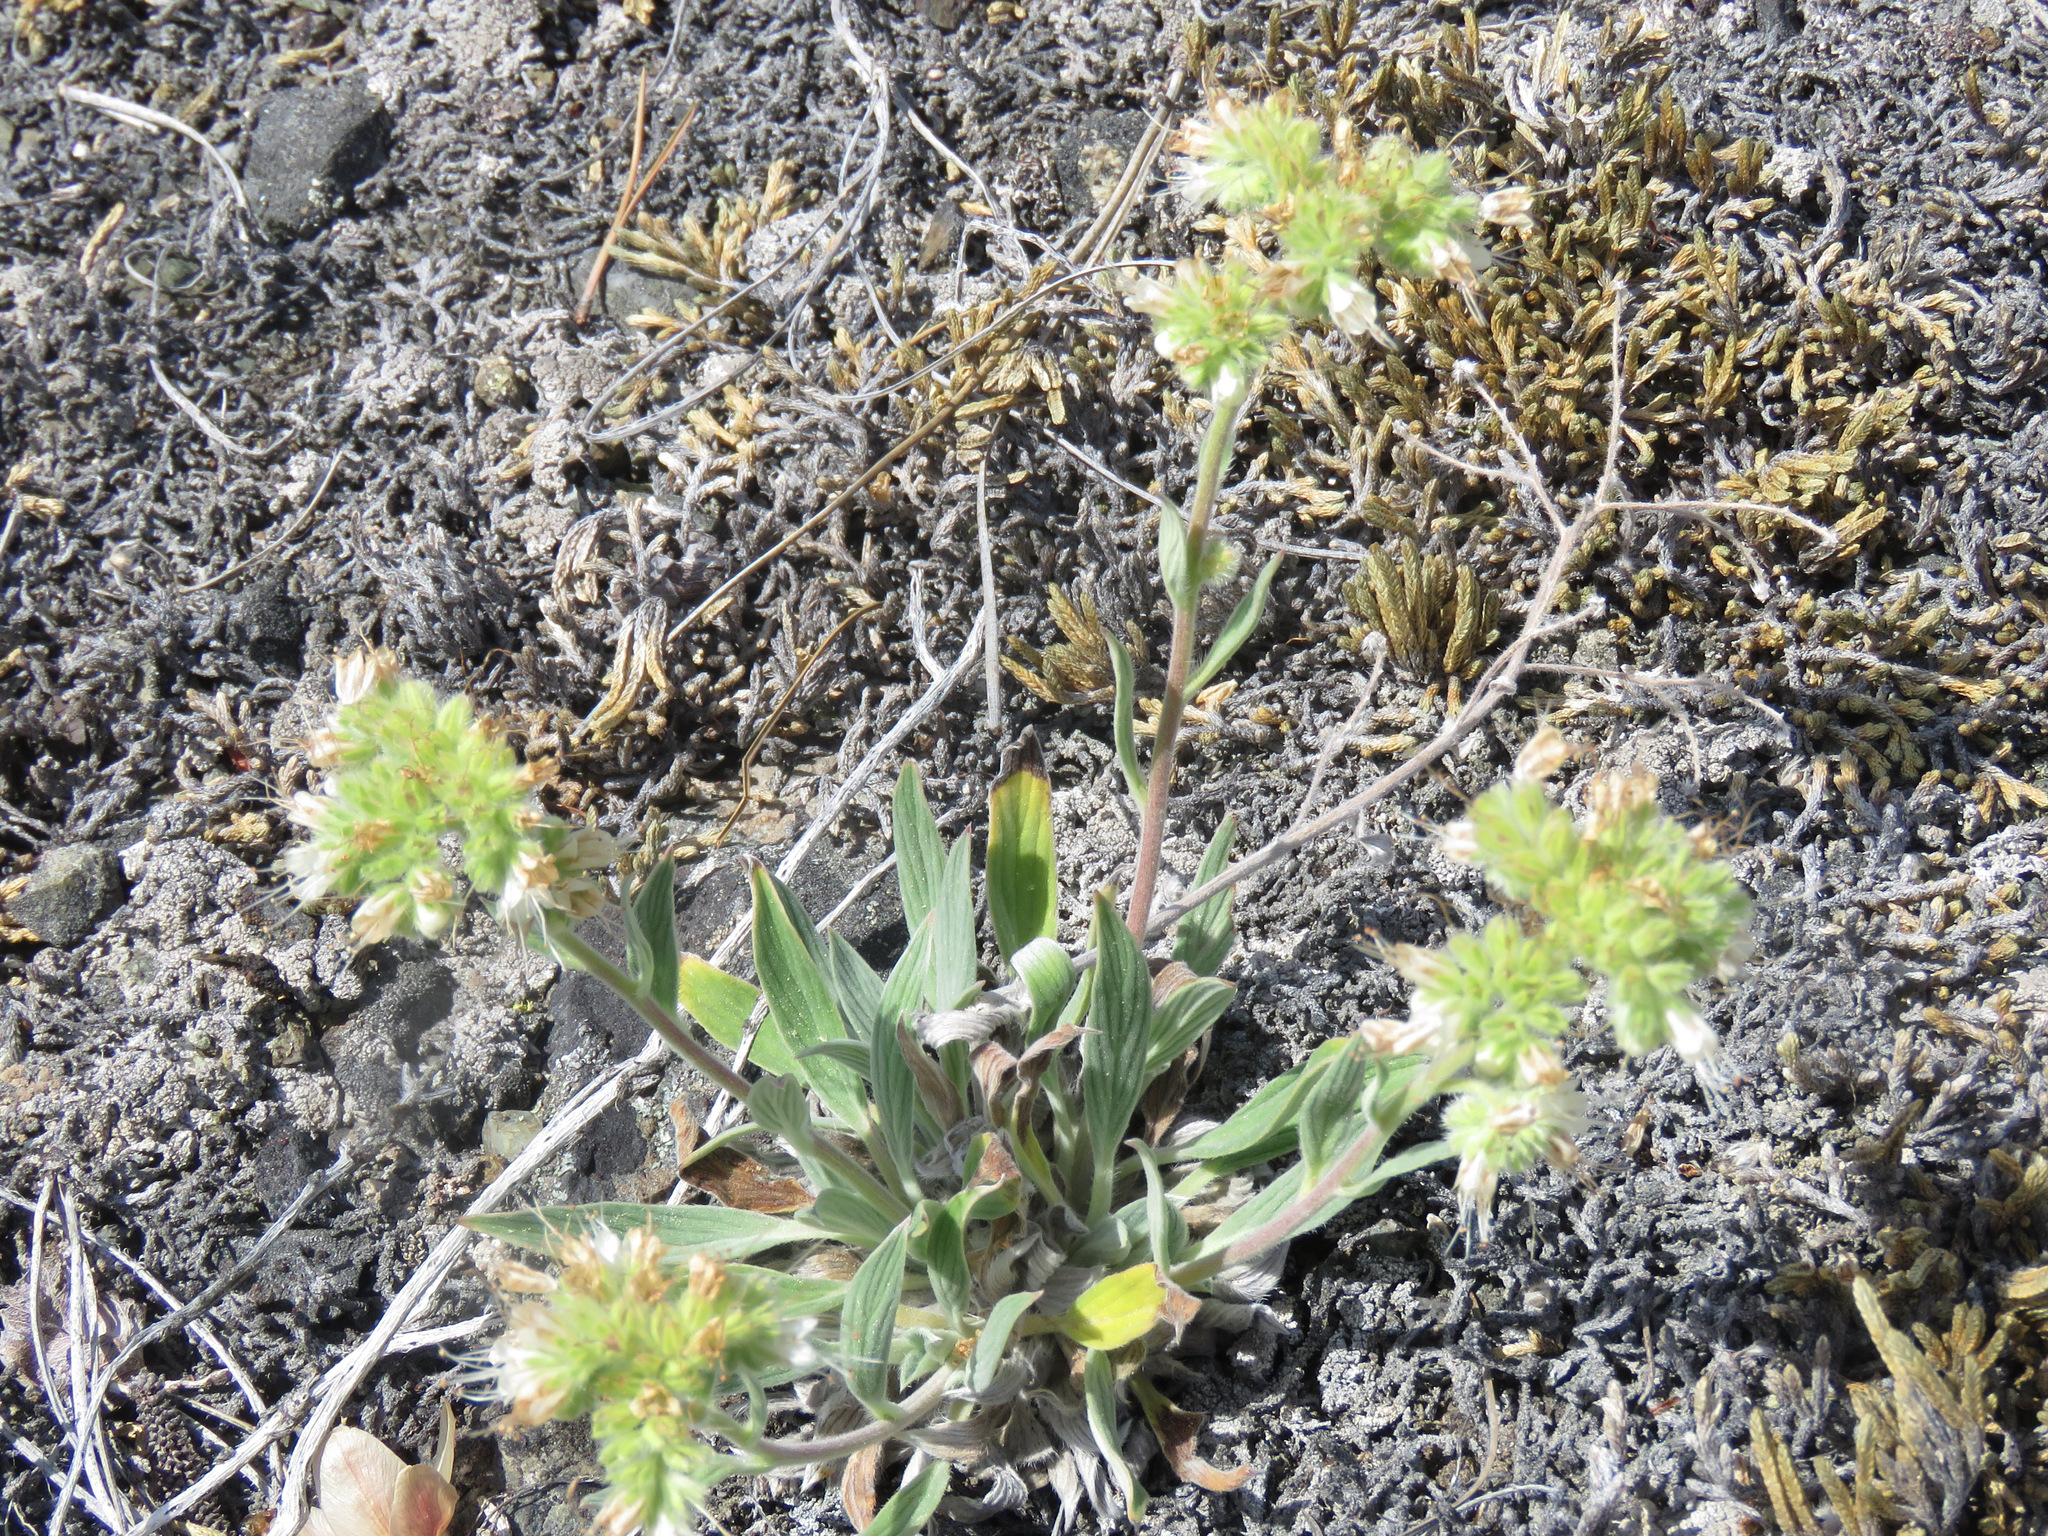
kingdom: Plantae
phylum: Tracheophyta
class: Magnoliopsida
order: Boraginales
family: Hydrophyllaceae
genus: Phacelia
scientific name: Phacelia hastata
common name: Silver-leaved phacelia
